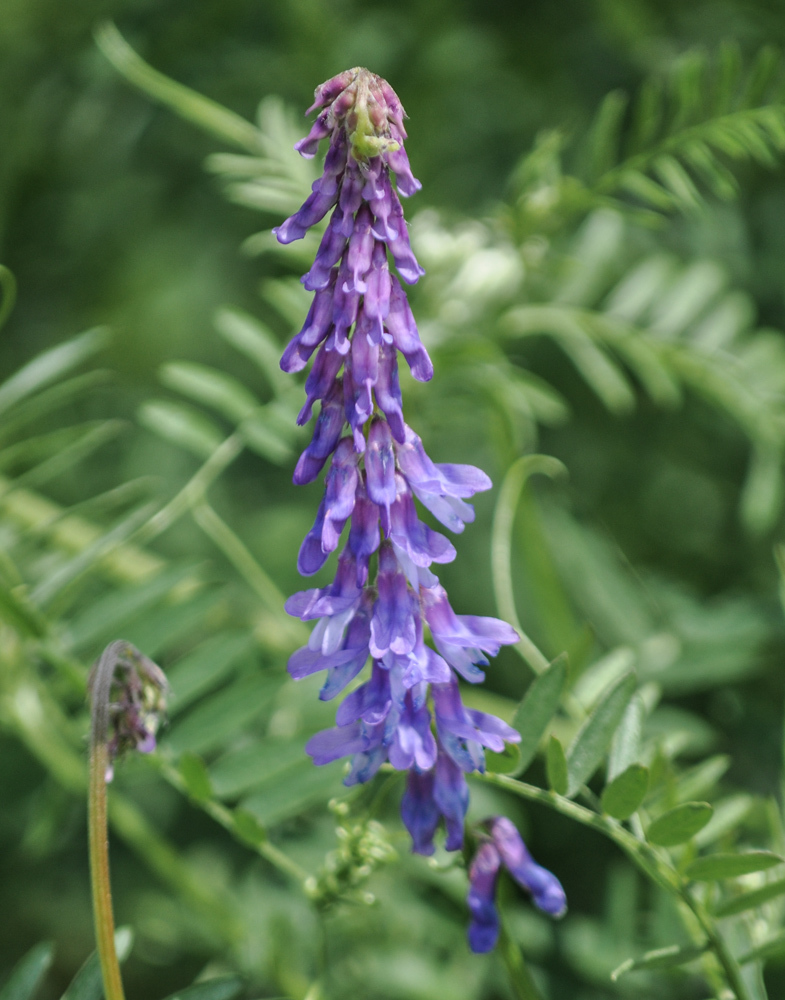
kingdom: Plantae
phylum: Tracheophyta
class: Magnoliopsida
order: Fabales
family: Fabaceae
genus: Vicia
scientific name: Vicia cracca
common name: Bird vetch
